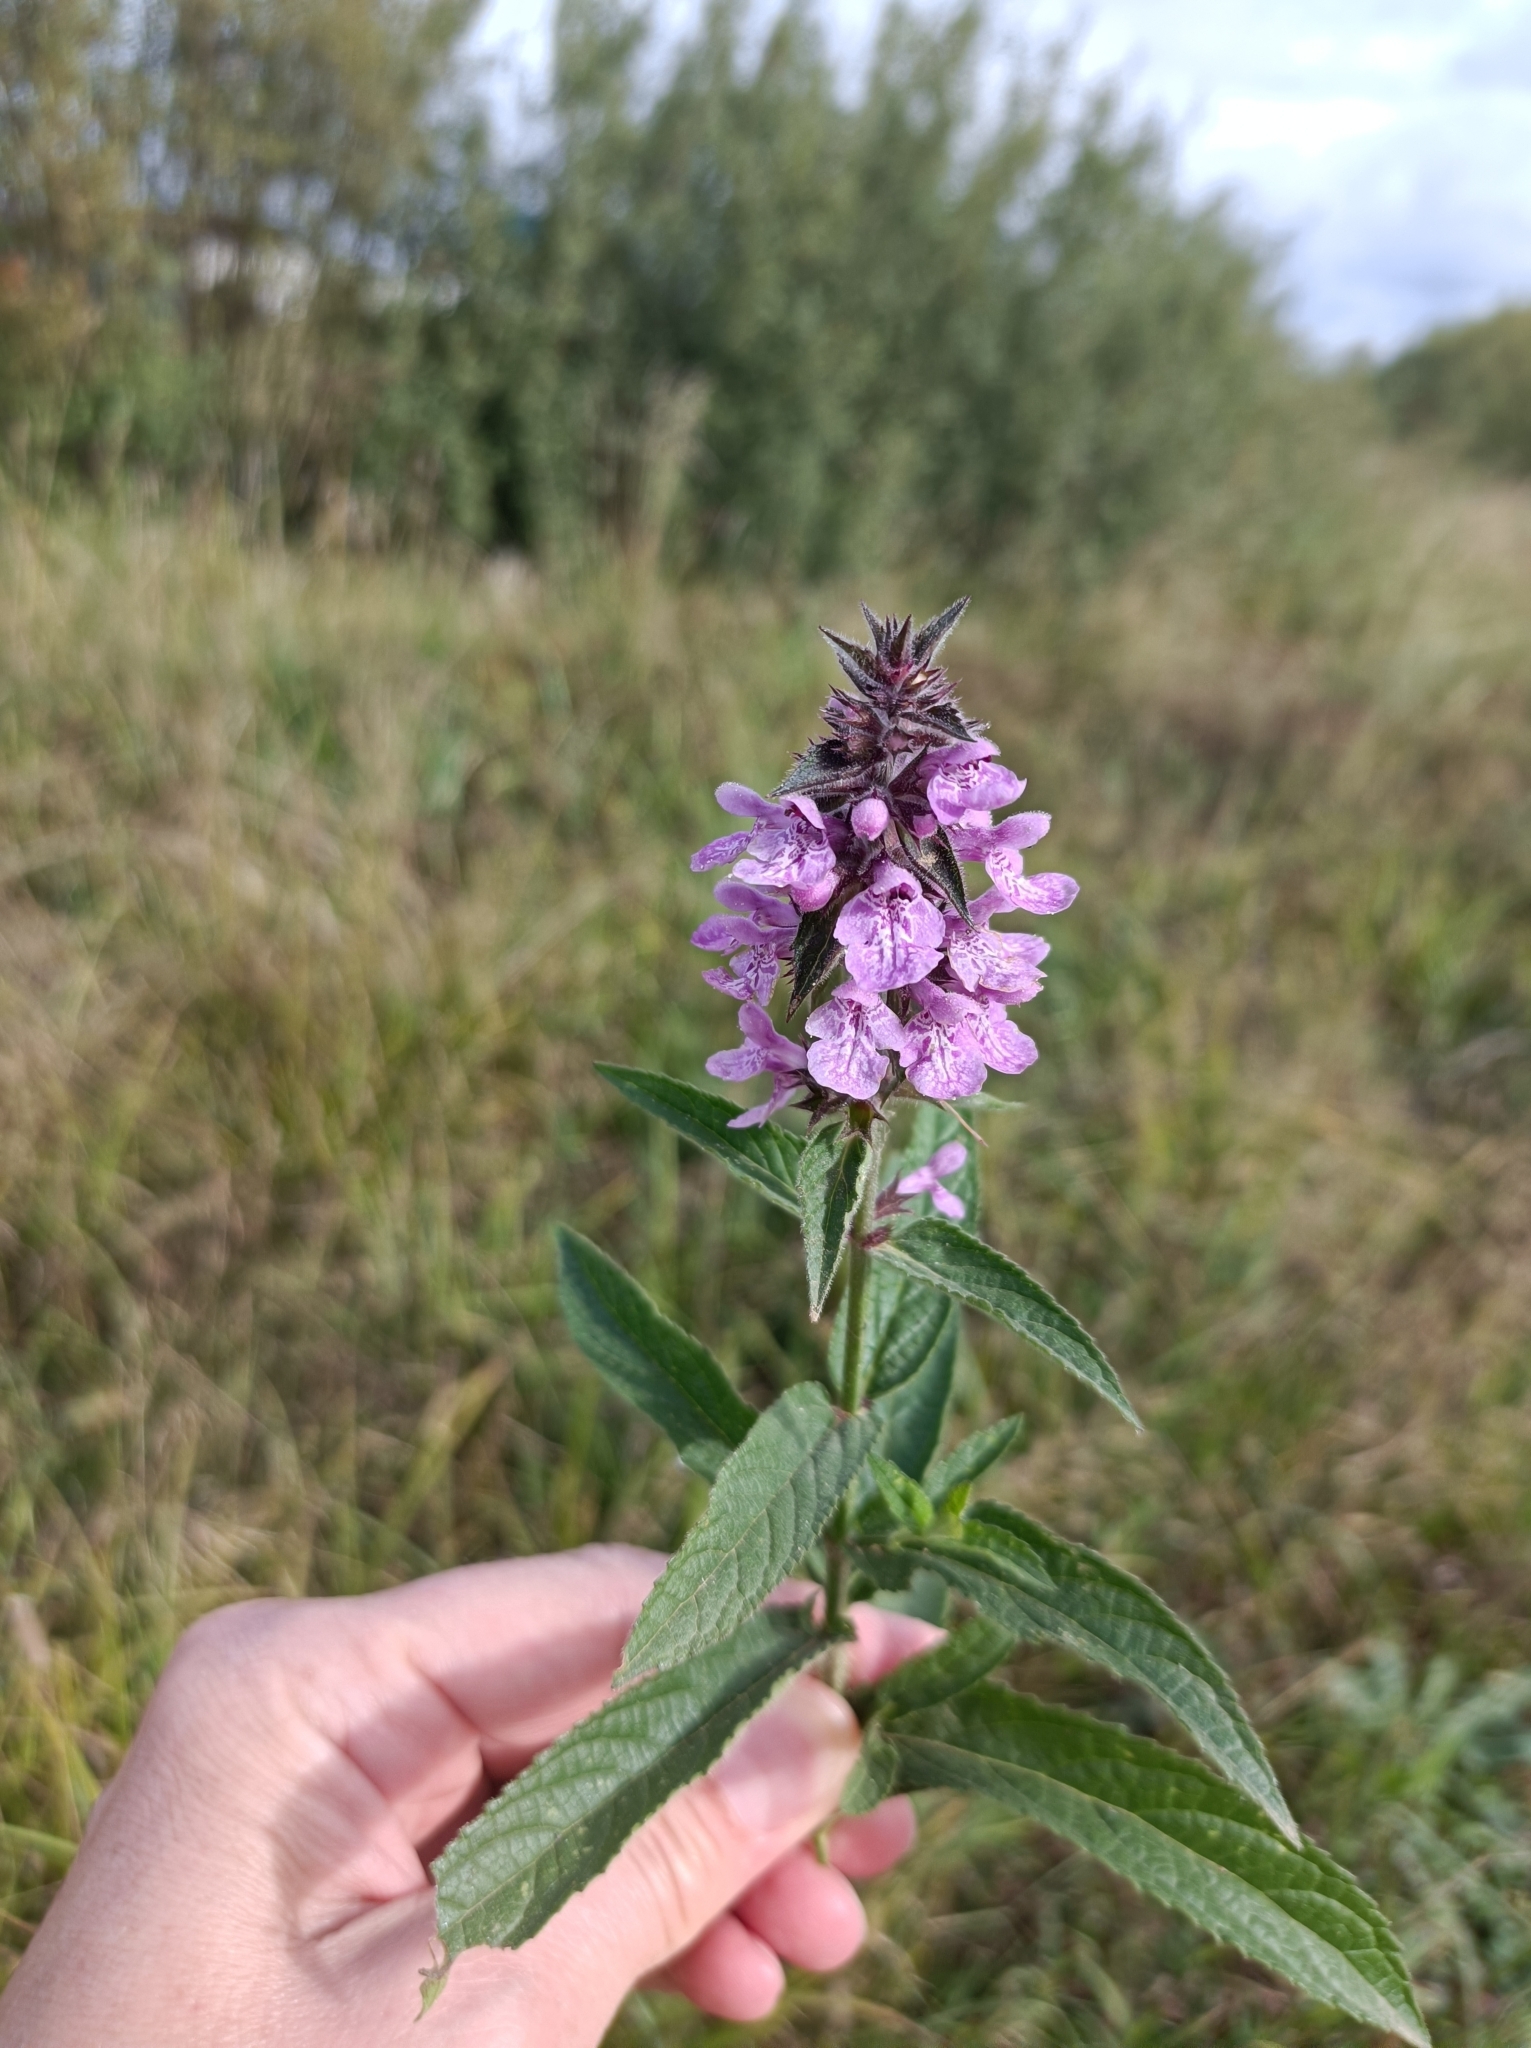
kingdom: Plantae
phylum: Tracheophyta
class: Magnoliopsida
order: Lamiales
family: Lamiaceae
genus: Stachys
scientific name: Stachys palustris
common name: Marsh woundwort
